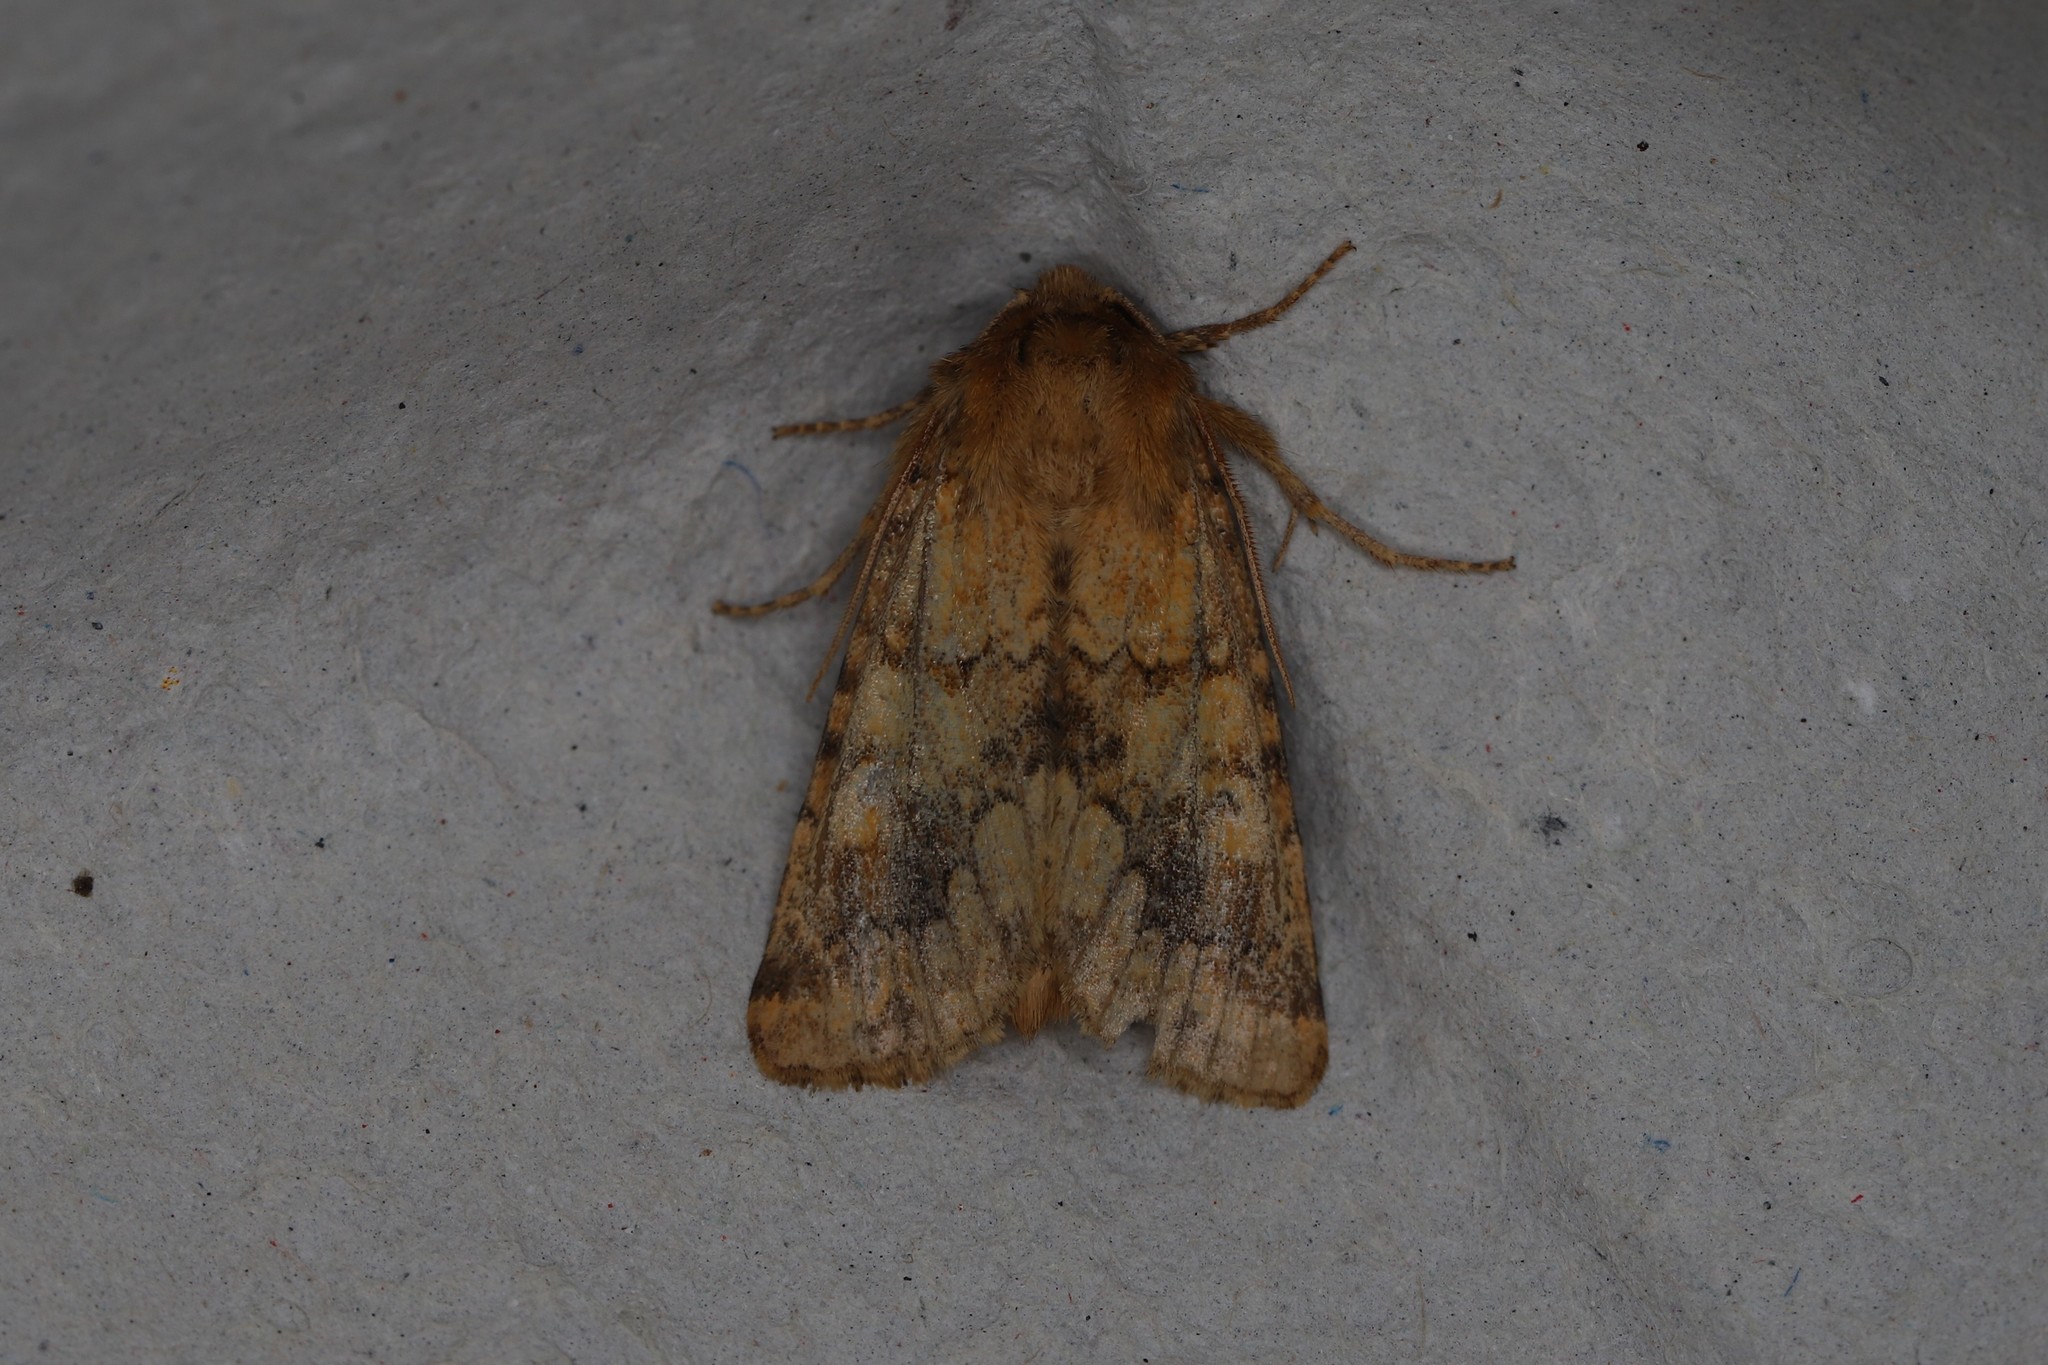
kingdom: Animalia
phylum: Arthropoda
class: Insecta
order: Lepidoptera
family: Noctuidae
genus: Conisania
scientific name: Conisania luteago
